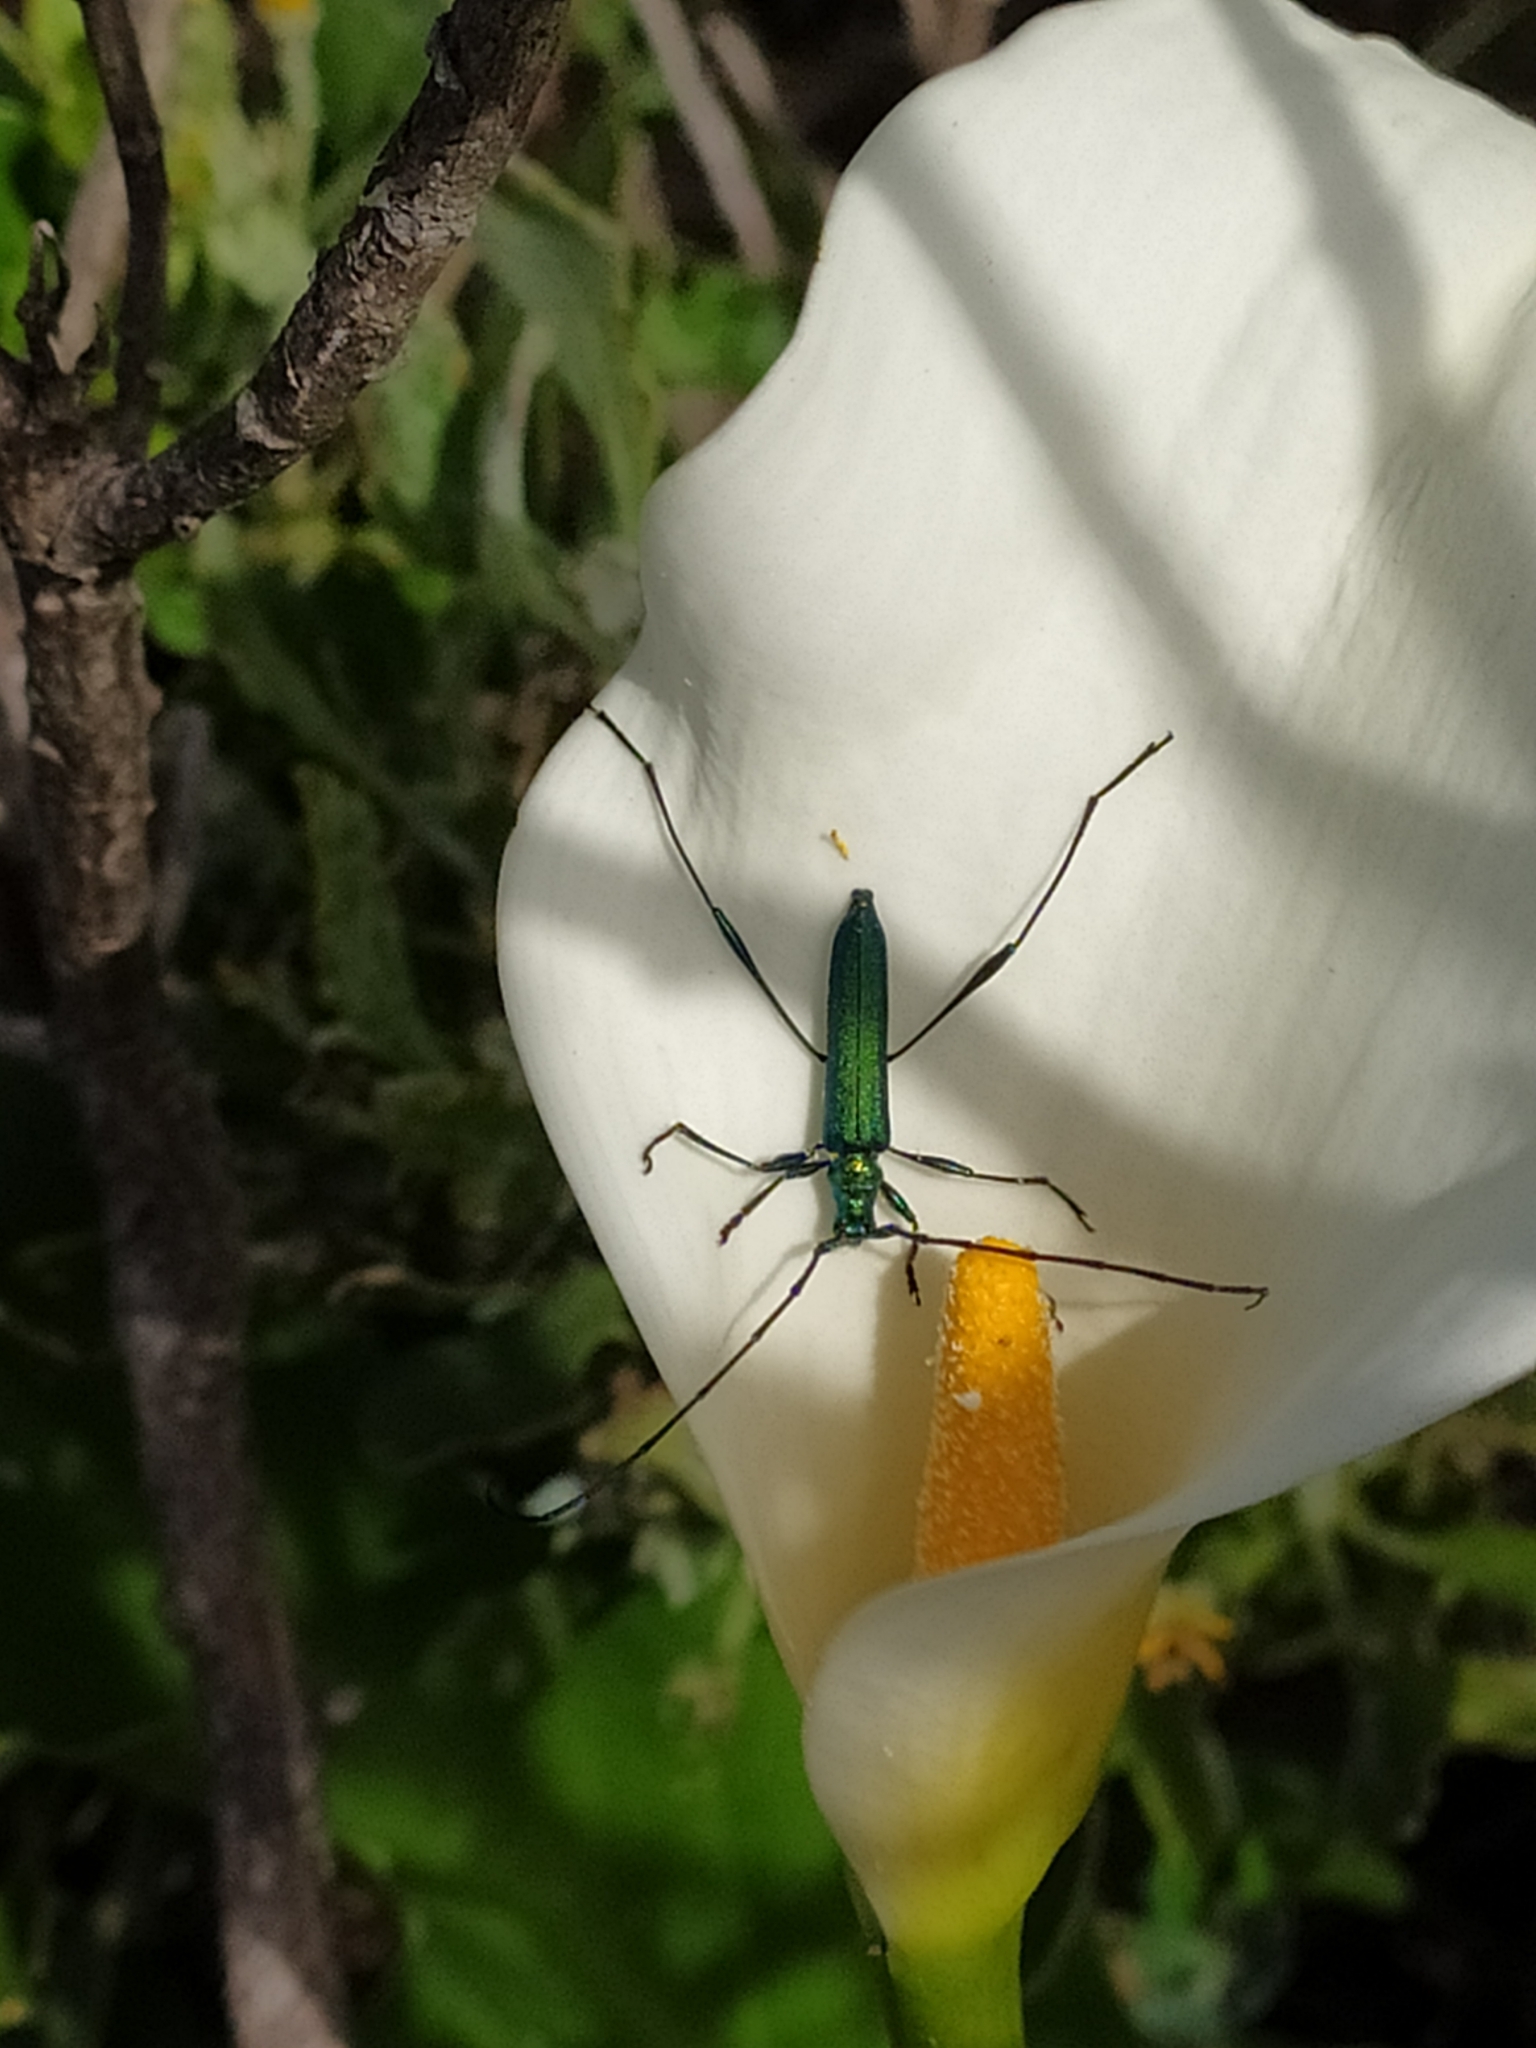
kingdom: Animalia
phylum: Arthropoda
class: Insecta
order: Coleoptera
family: Cerambycidae
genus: Promeces
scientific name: Promeces longipes
